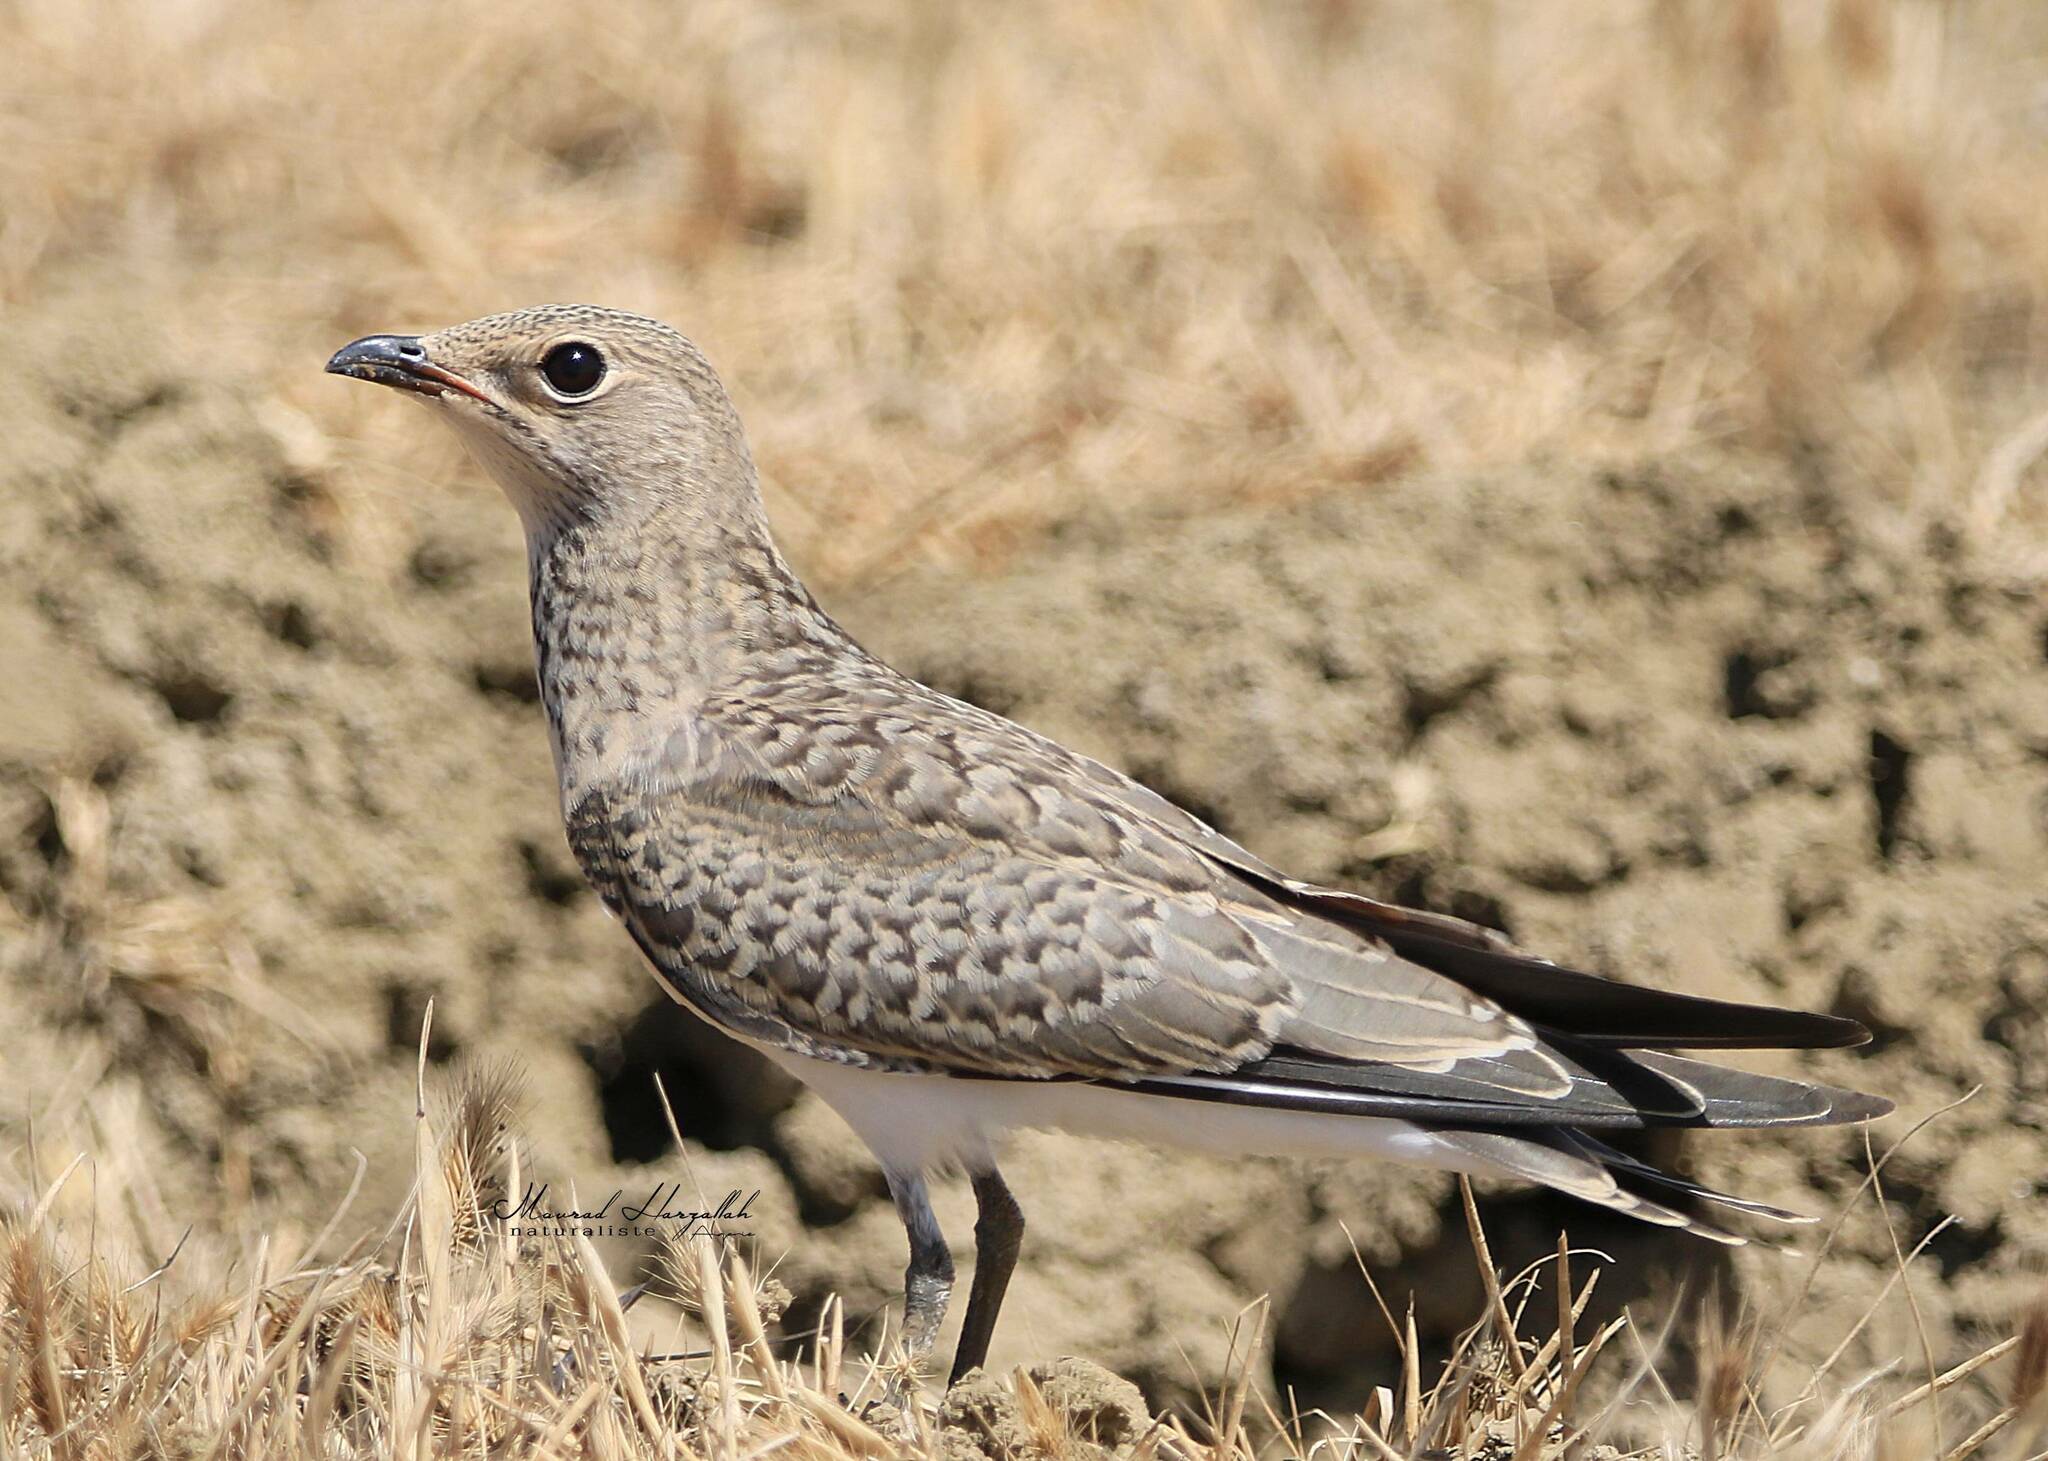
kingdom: Animalia
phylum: Chordata
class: Aves
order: Charadriiformes
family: Glareolidae
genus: Glareola
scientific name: Glareola pratincola
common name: Collared pratincole
